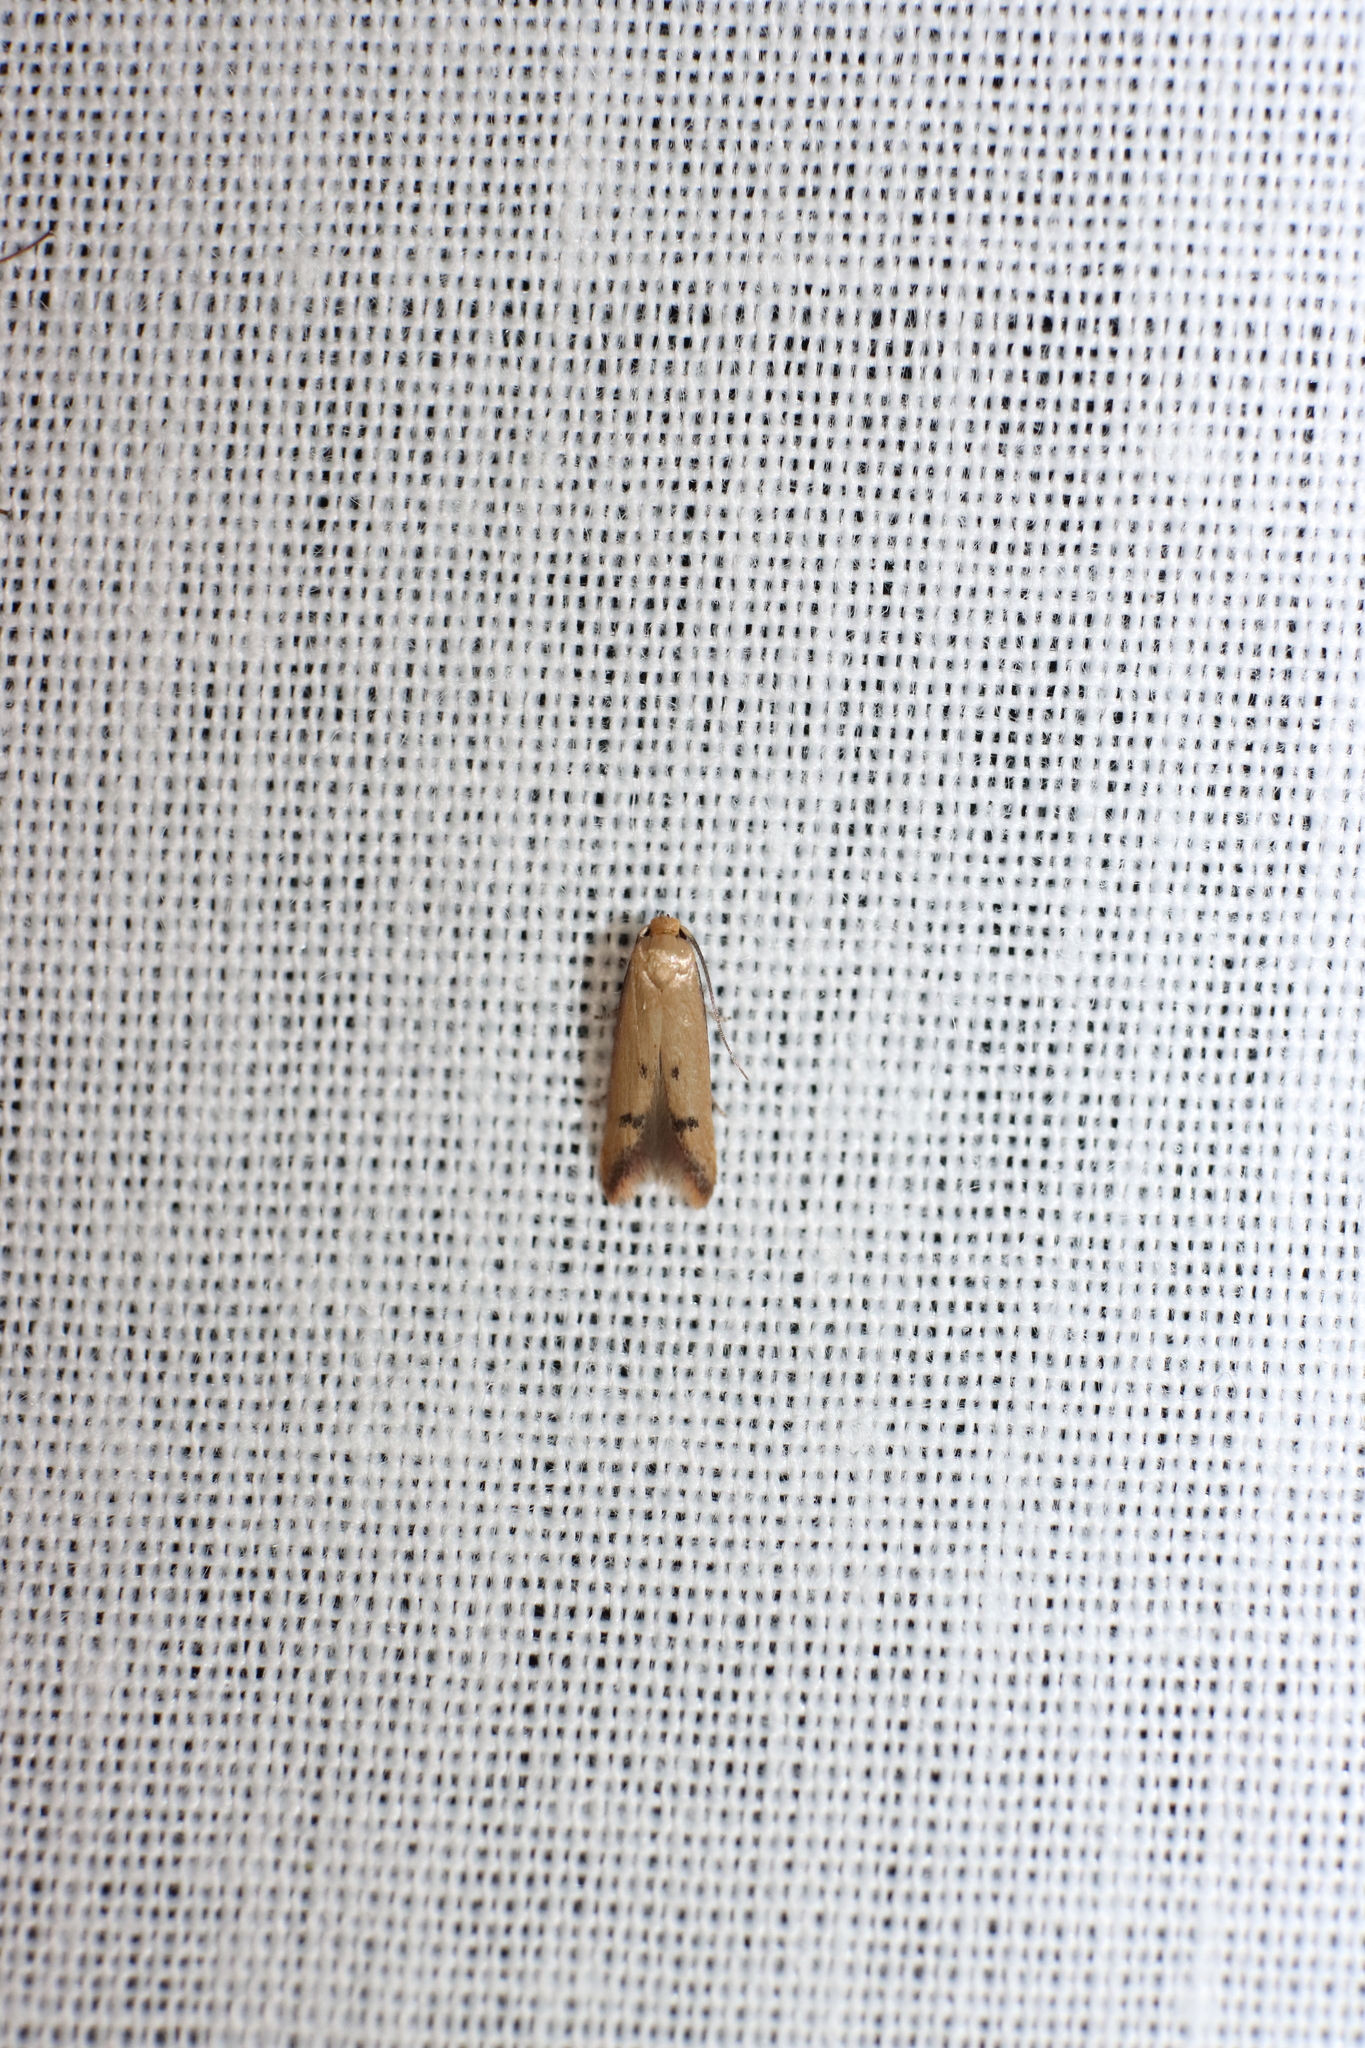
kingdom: Animalia
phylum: Arthropoda
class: Insecta
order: Lepidoptera
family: Oecophoridae
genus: Tachystola
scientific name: Tachystola hemisema
